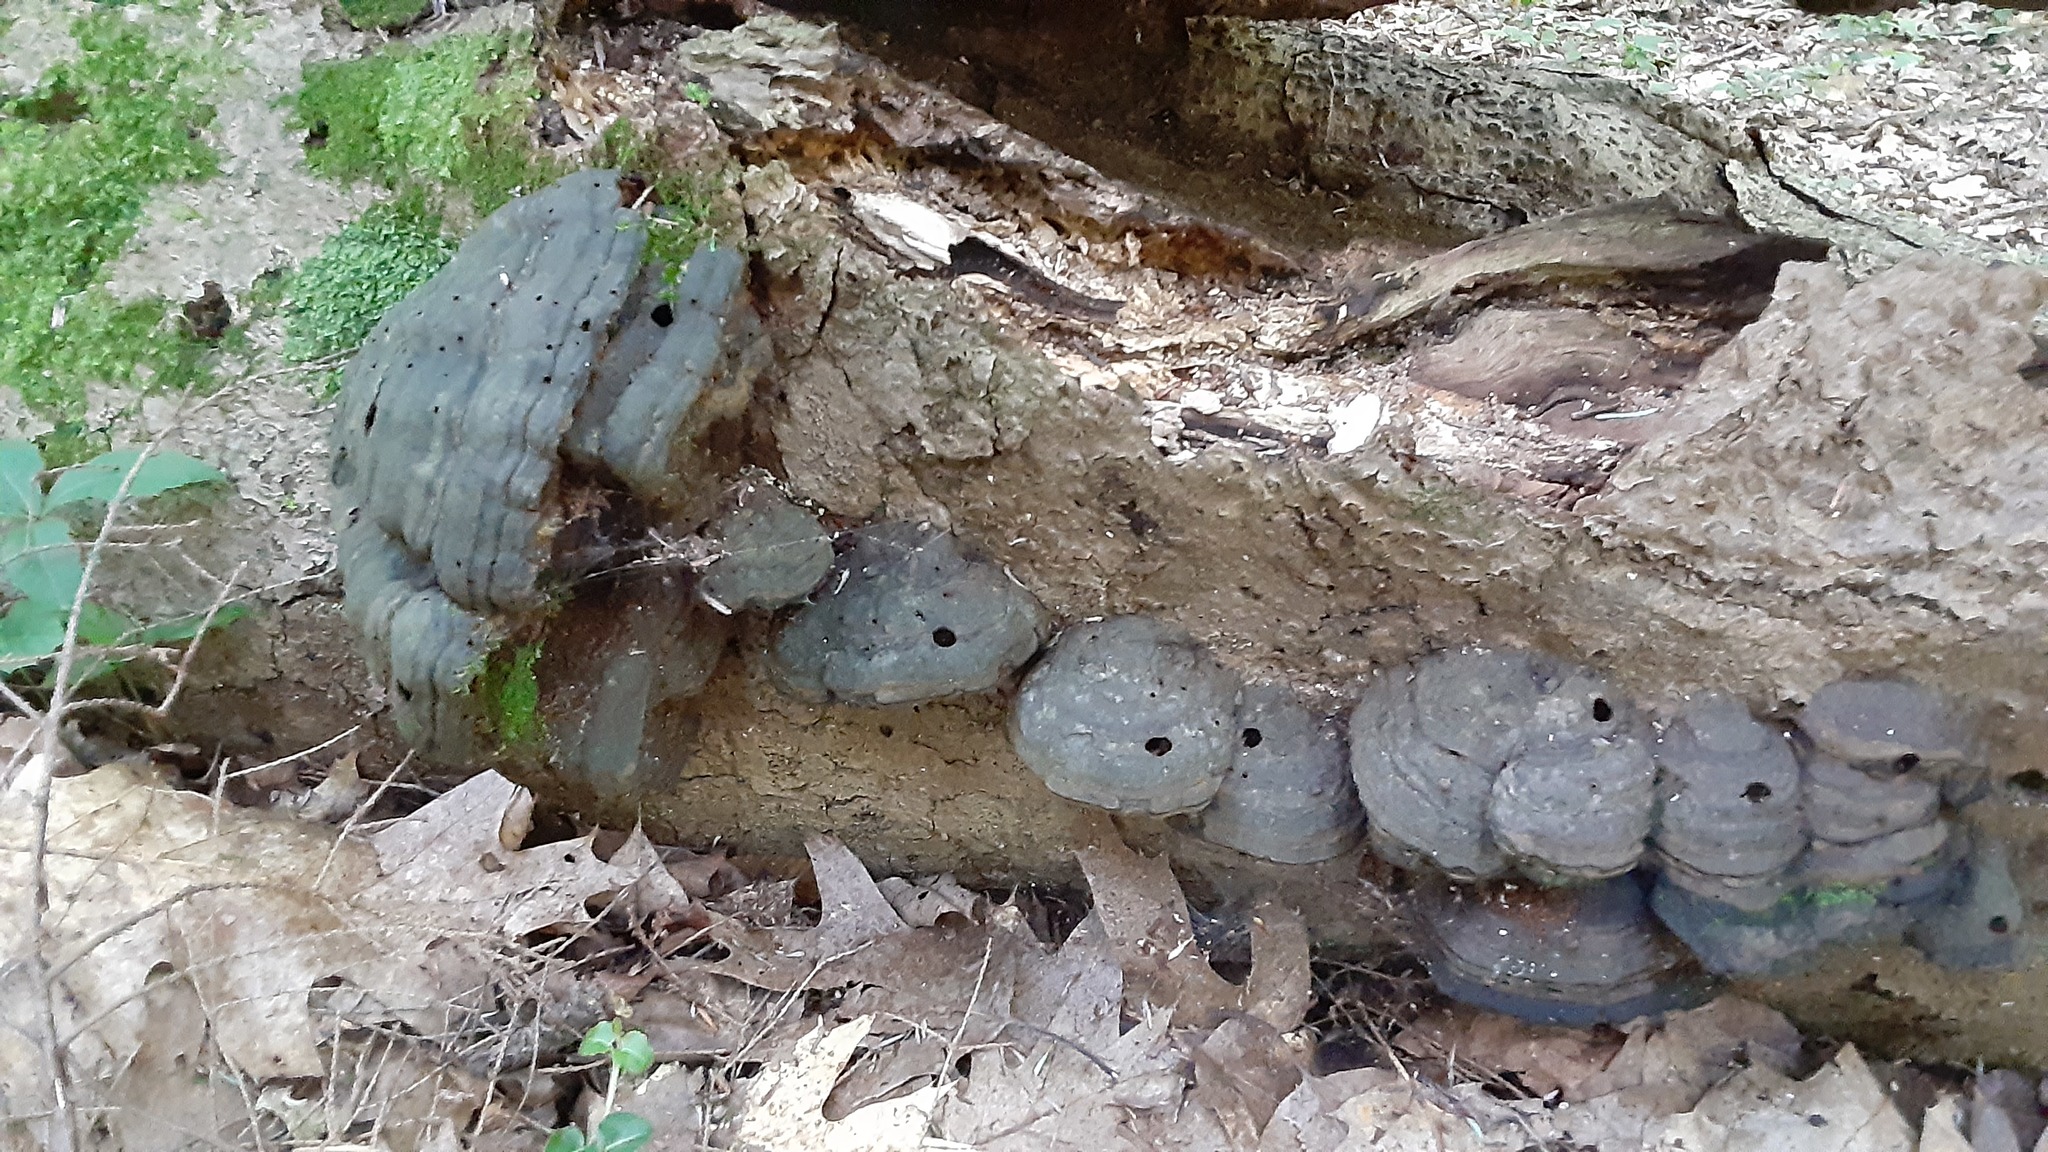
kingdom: Fungi
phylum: Basidiomycota
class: Agaricomycetes
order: Polyporales
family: Polyporaceae
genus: Fomes
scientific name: Fomes fomentarius
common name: Hoof fungus
